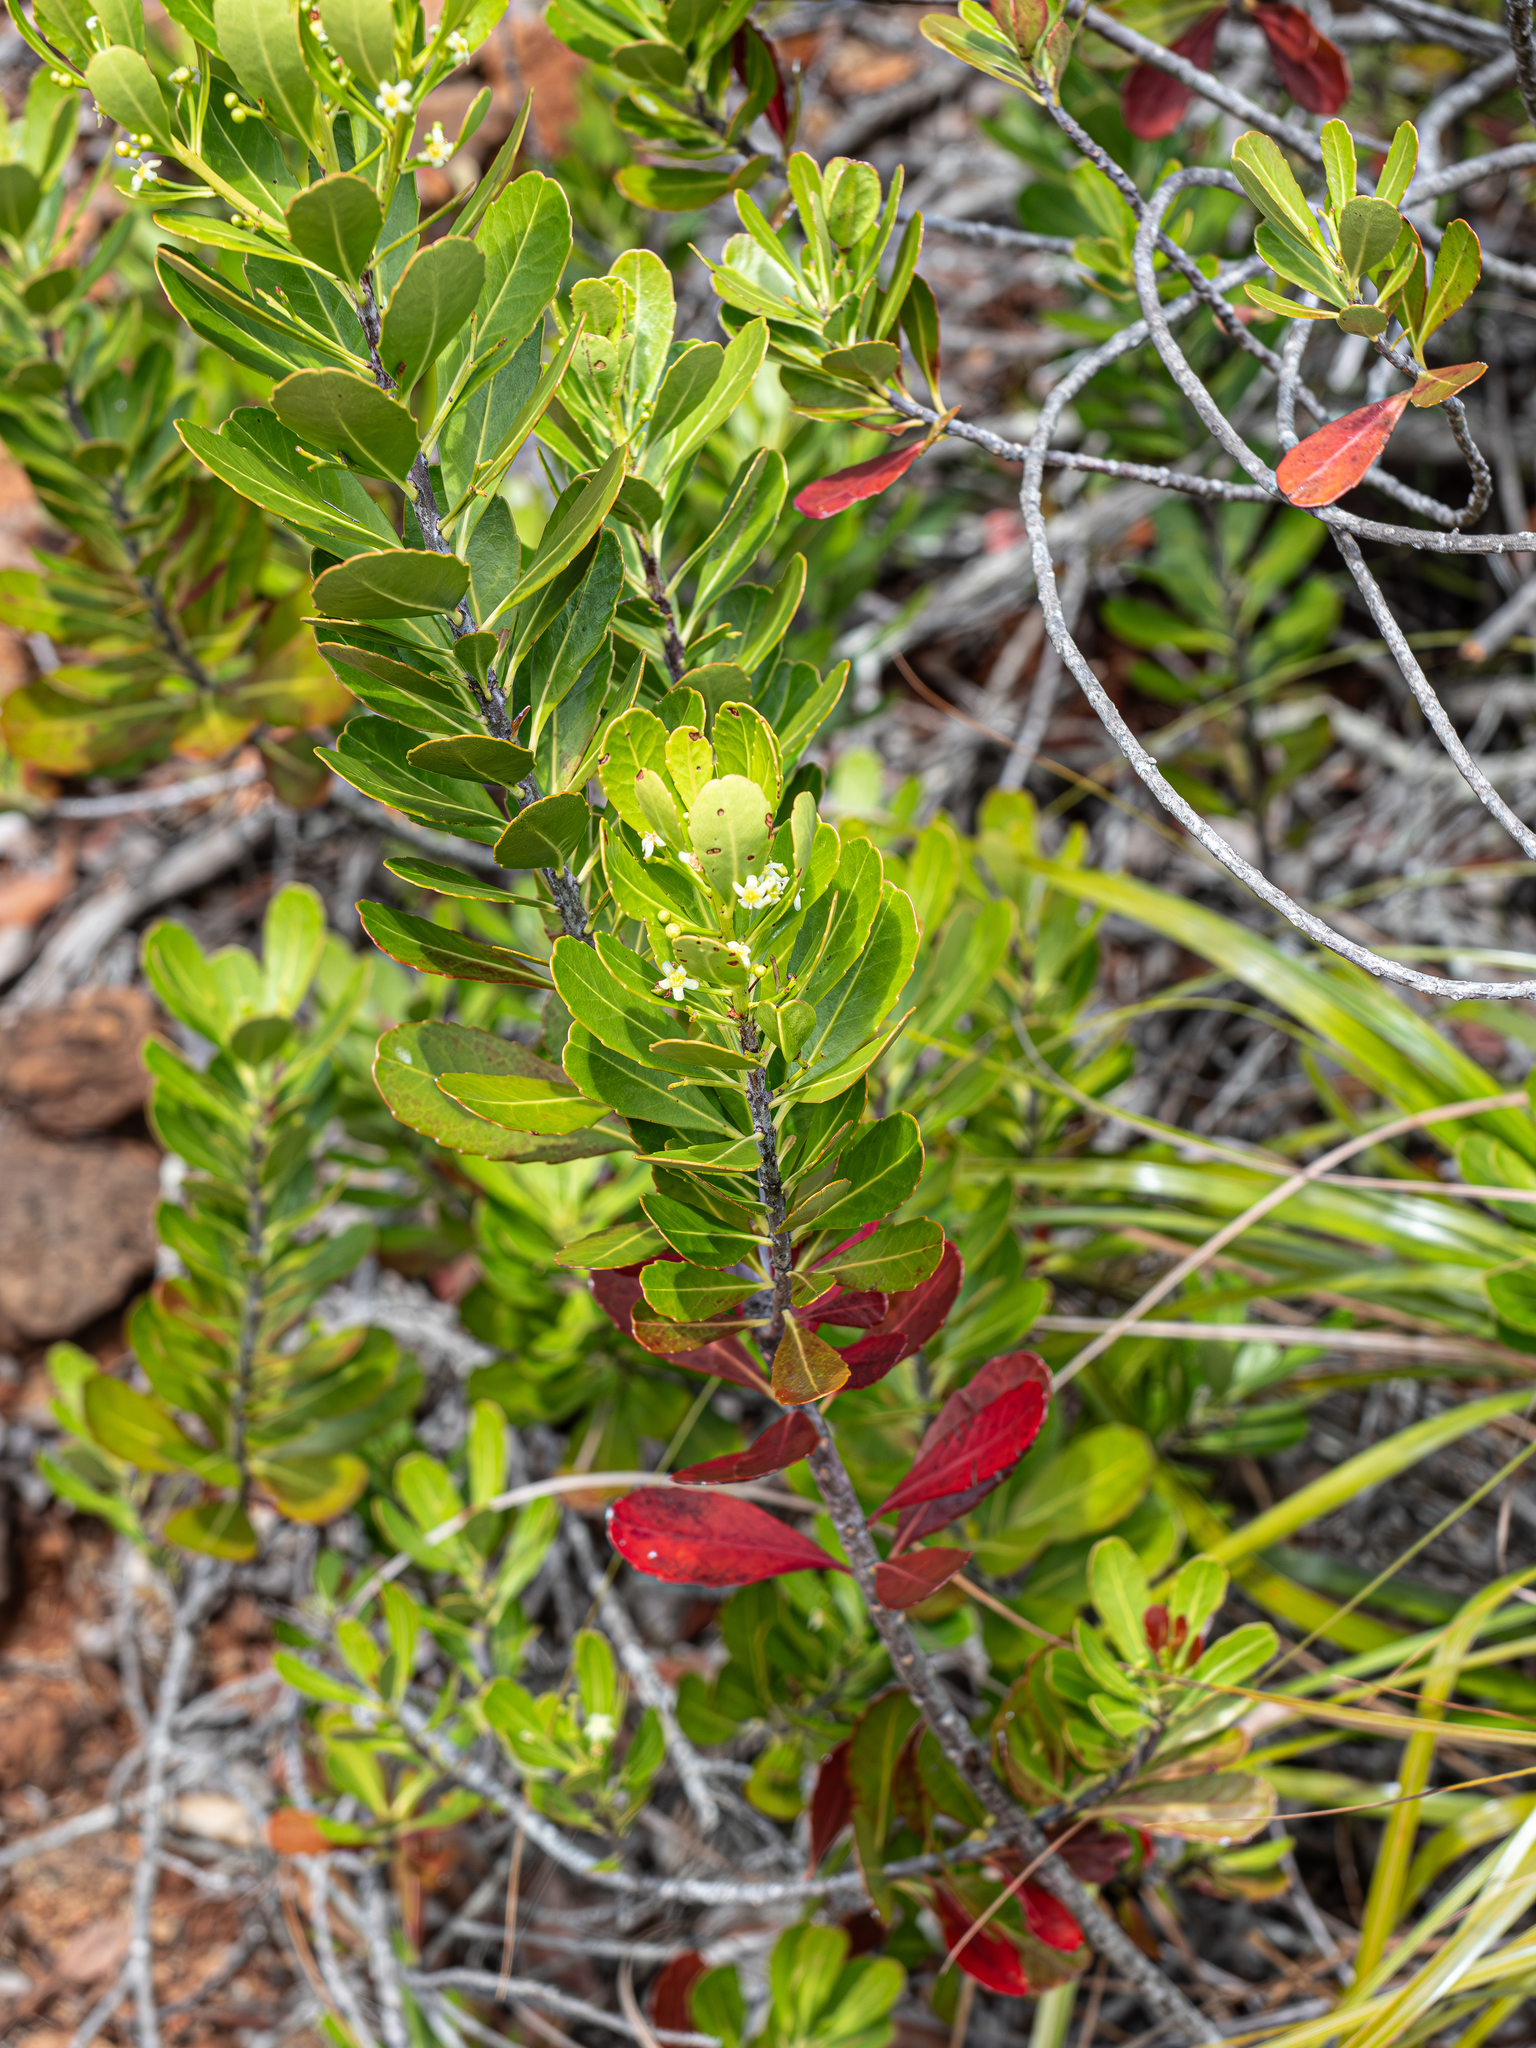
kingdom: Plantae
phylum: Tracheophyta
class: Magnoliopsida
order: Celastrales
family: Celastraceae
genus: Peripterygia
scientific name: Peripterygia marginata
